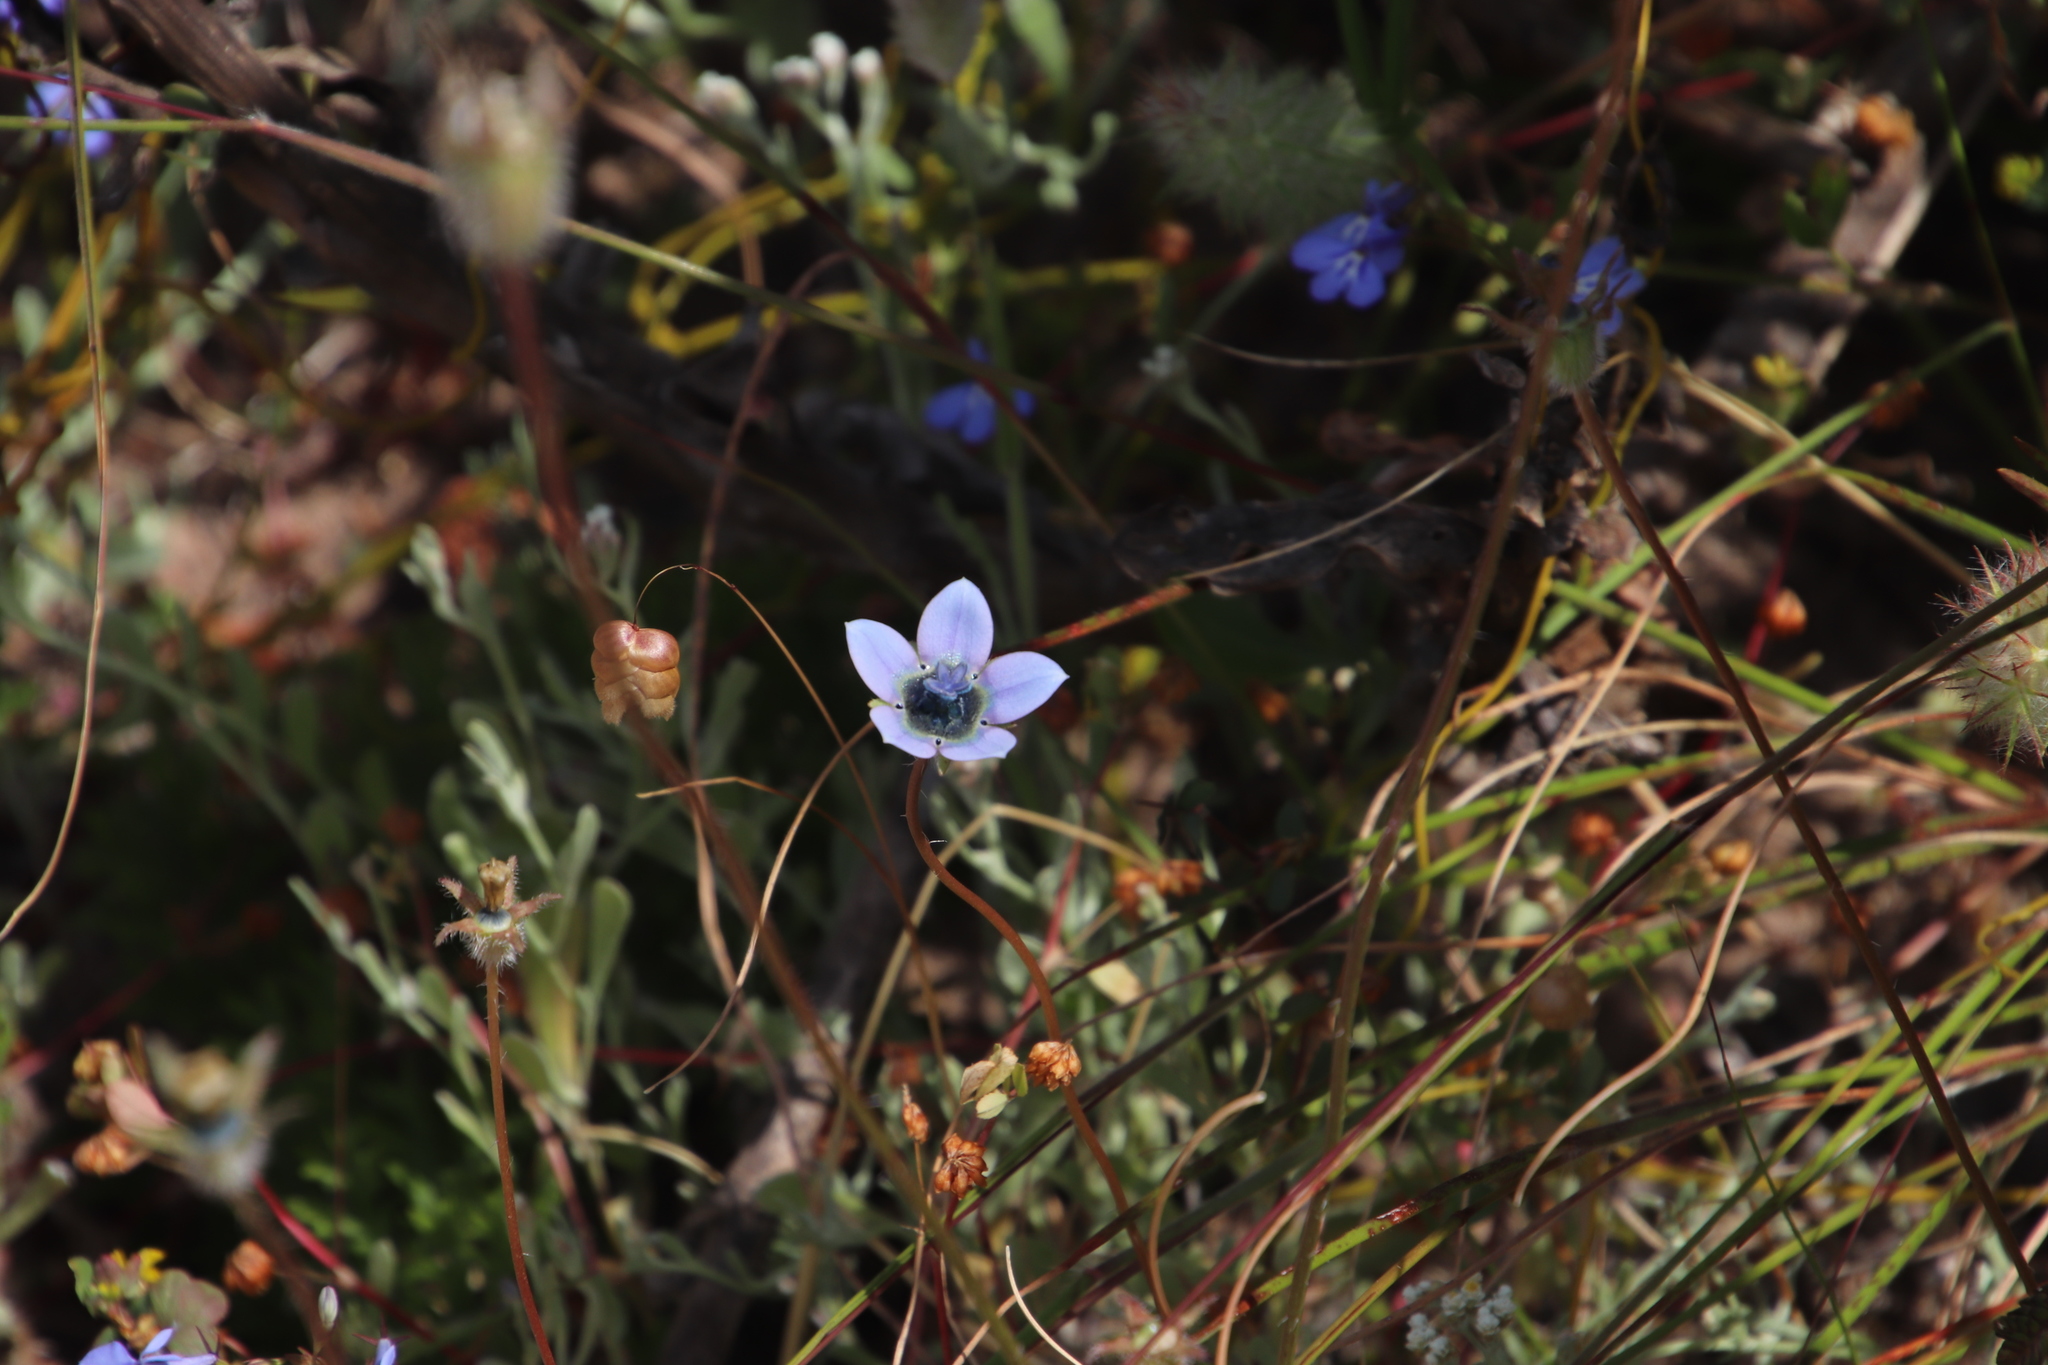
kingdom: Plantae
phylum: Tracheophyta
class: Magnoliopsida
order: Asterales
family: Campanulaceae
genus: Wahlenbergia
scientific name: Wahlenbergia capensis
